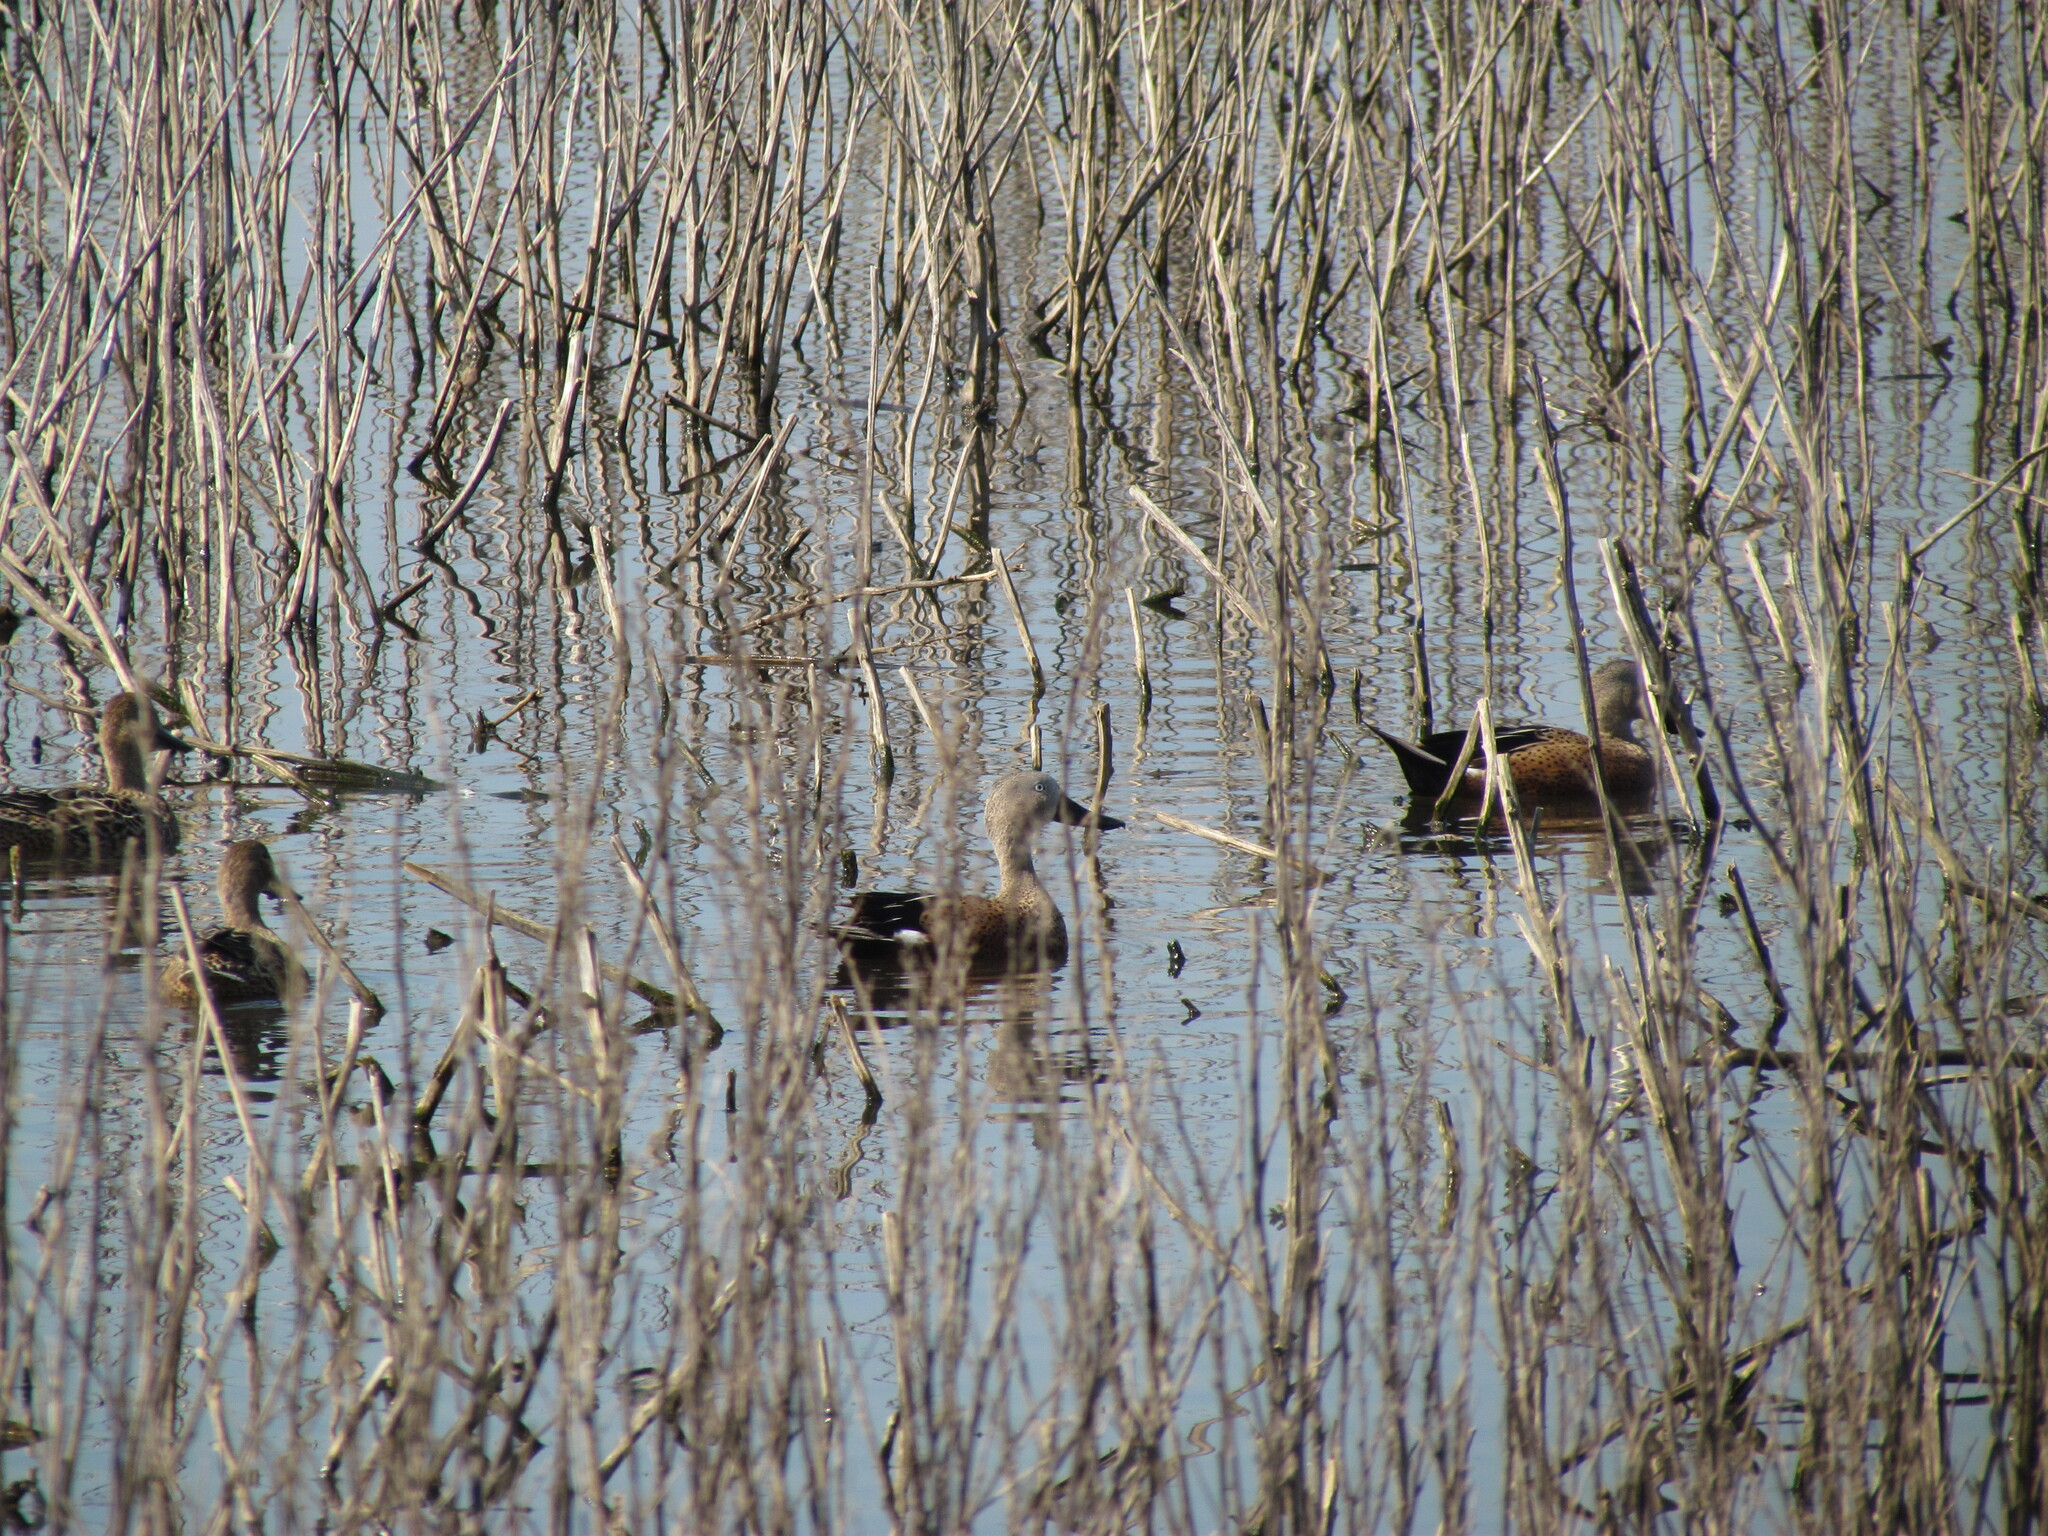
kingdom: Animalia
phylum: Chordata
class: Aves
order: Anseriformes
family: Anatidae
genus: Spatula
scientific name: Spatula platalea
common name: Red shoveler
